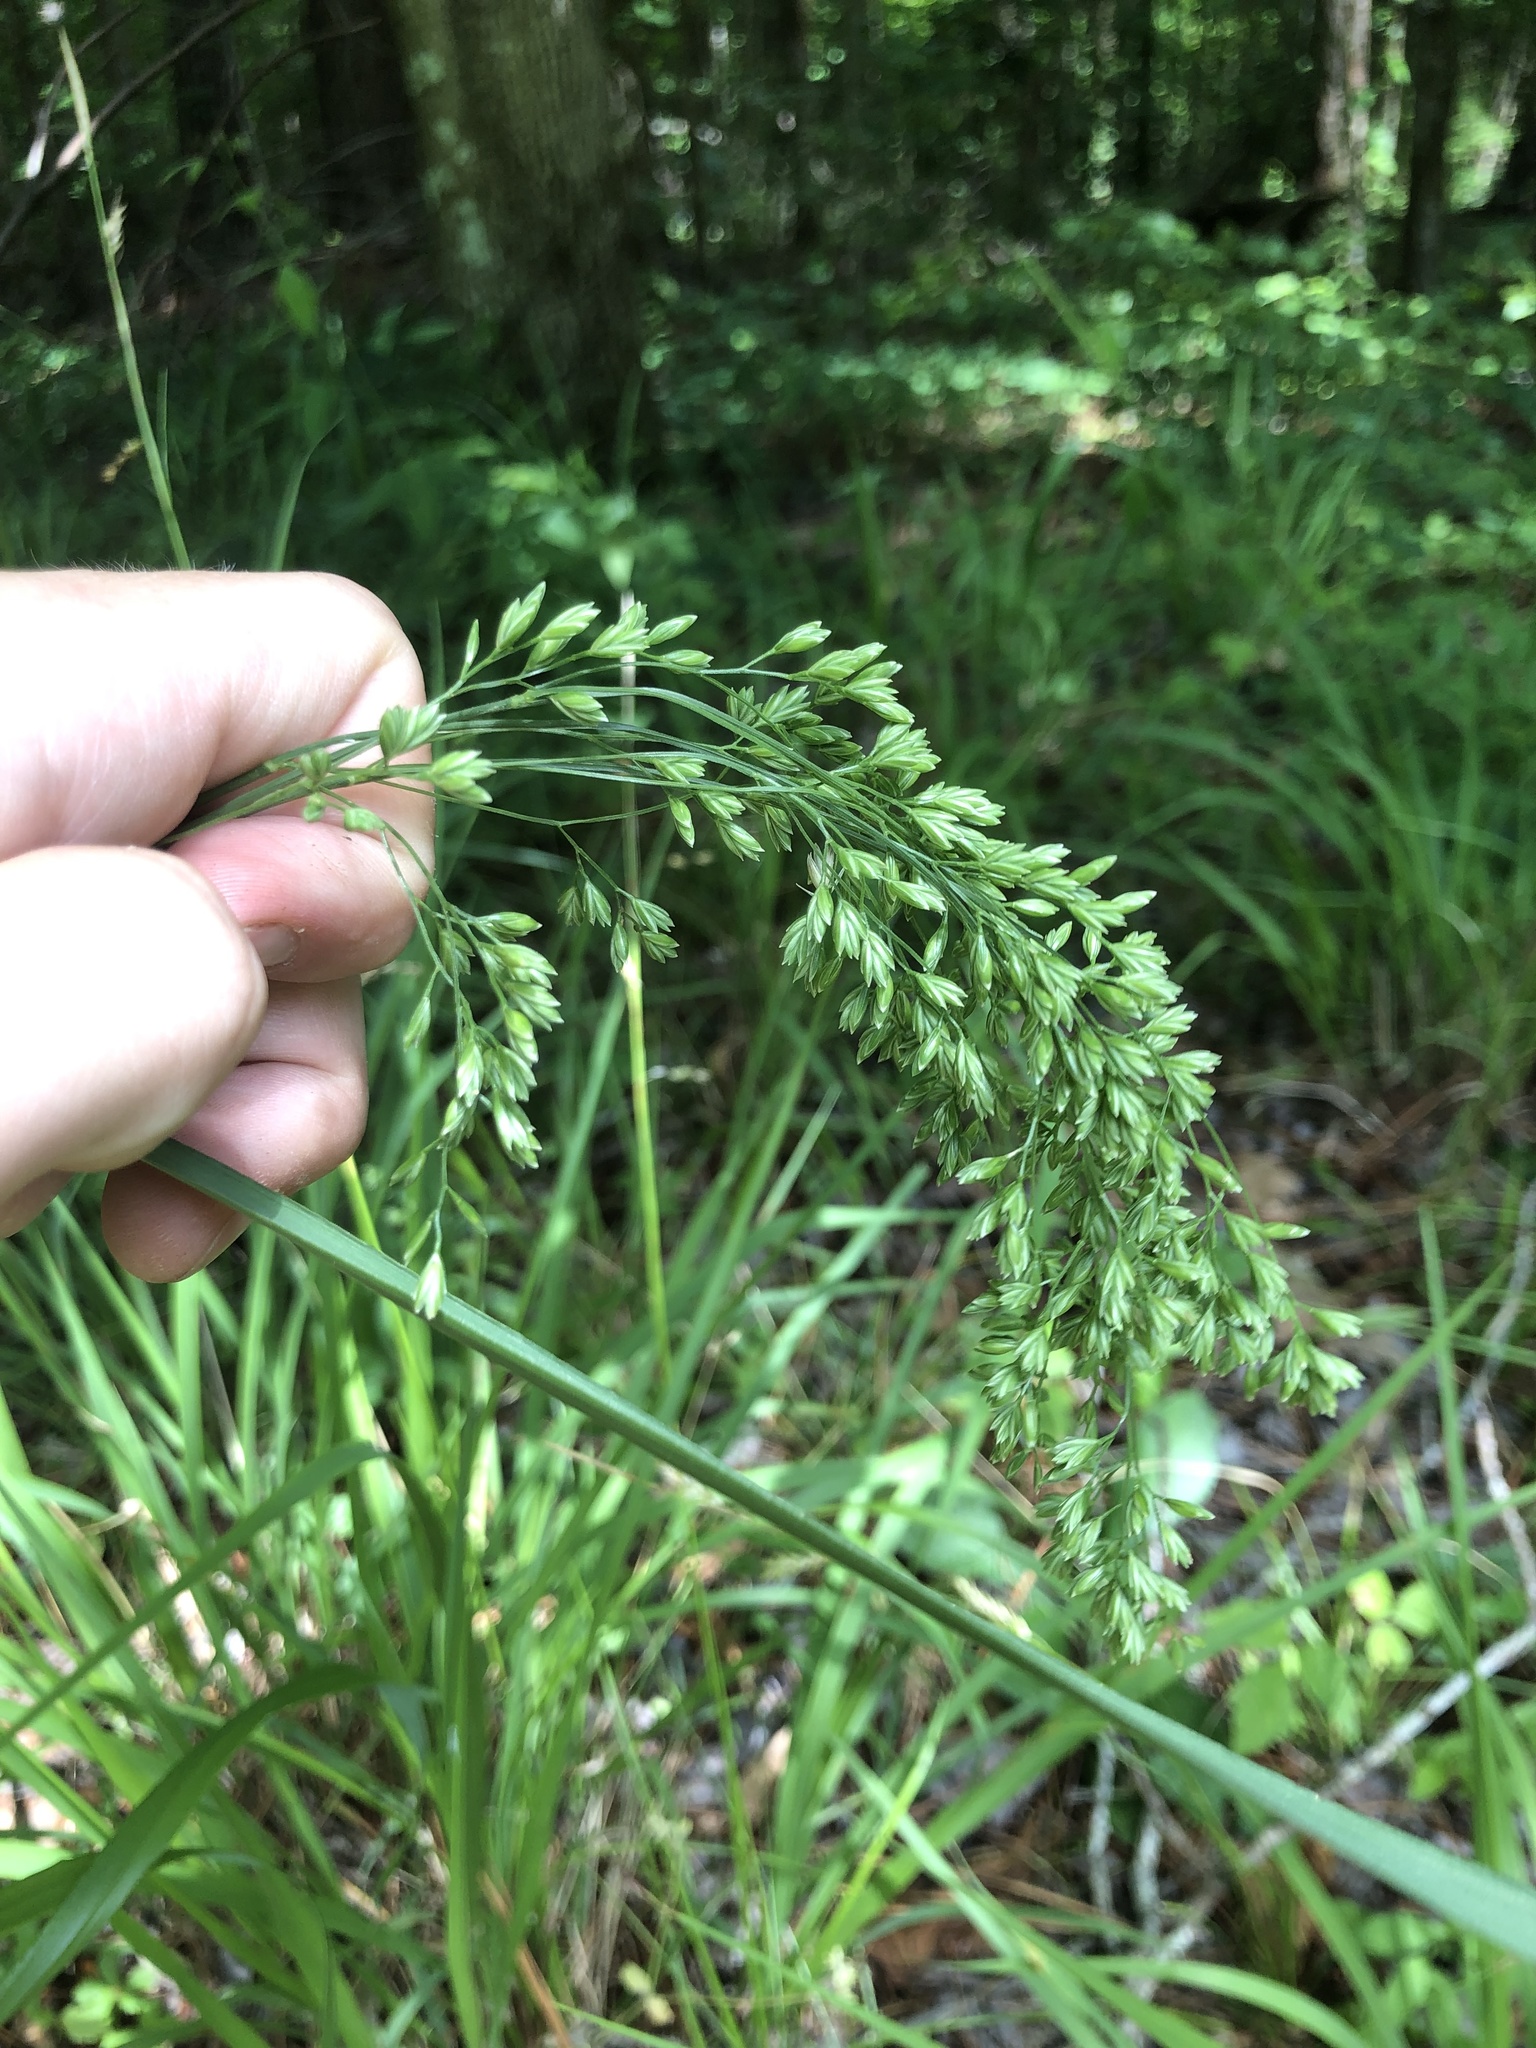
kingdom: Plantae
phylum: Tracheophyta
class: Liliopsida
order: Poales
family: Poaceae
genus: Festuca
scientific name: Festuca paradoxa
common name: Cluster fescue
